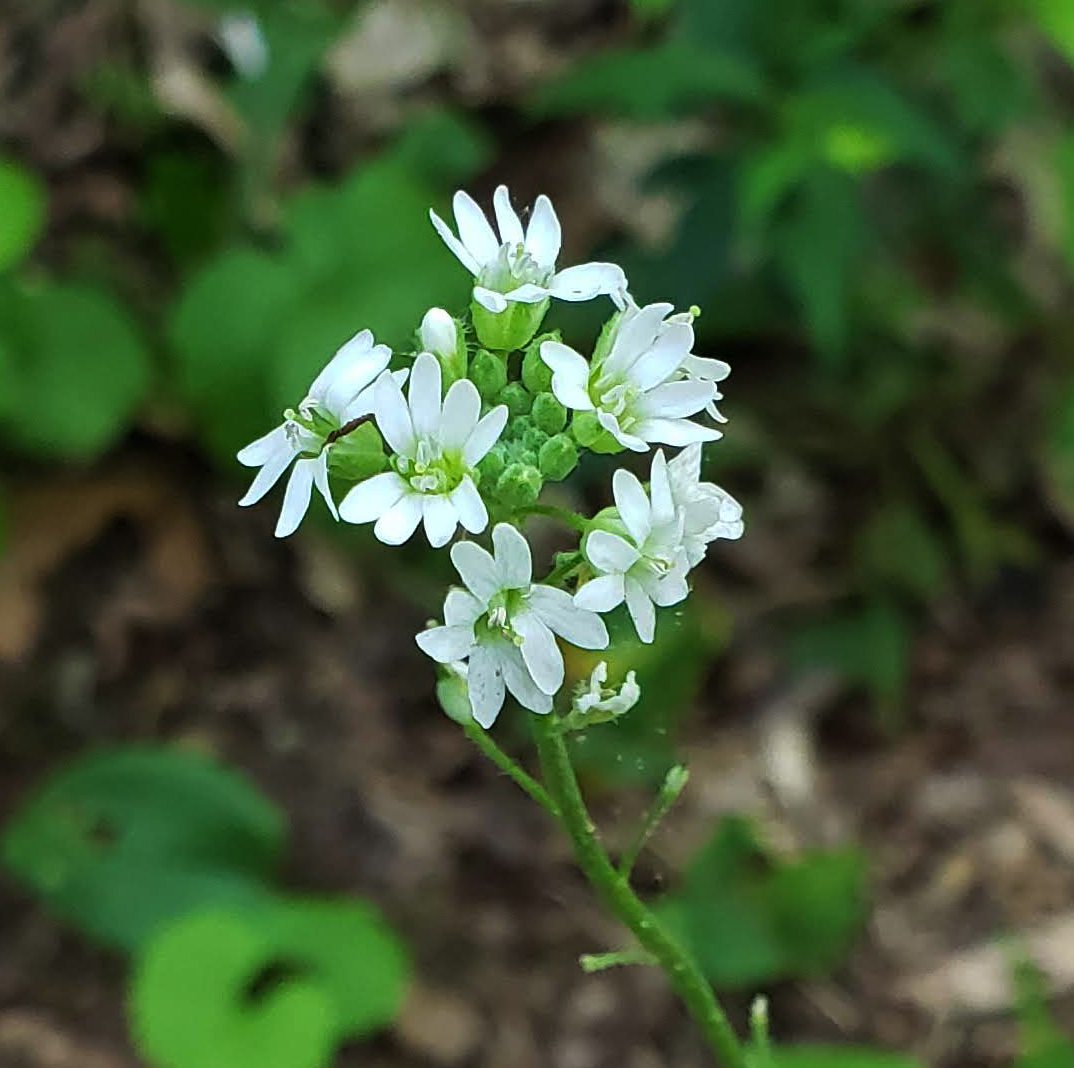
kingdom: Plantae
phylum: Tracheophyta
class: Magnoliopsida
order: Brassicales
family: Brassicaceae
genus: Berteroa
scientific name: Berteroa incana
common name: Hoary alison
